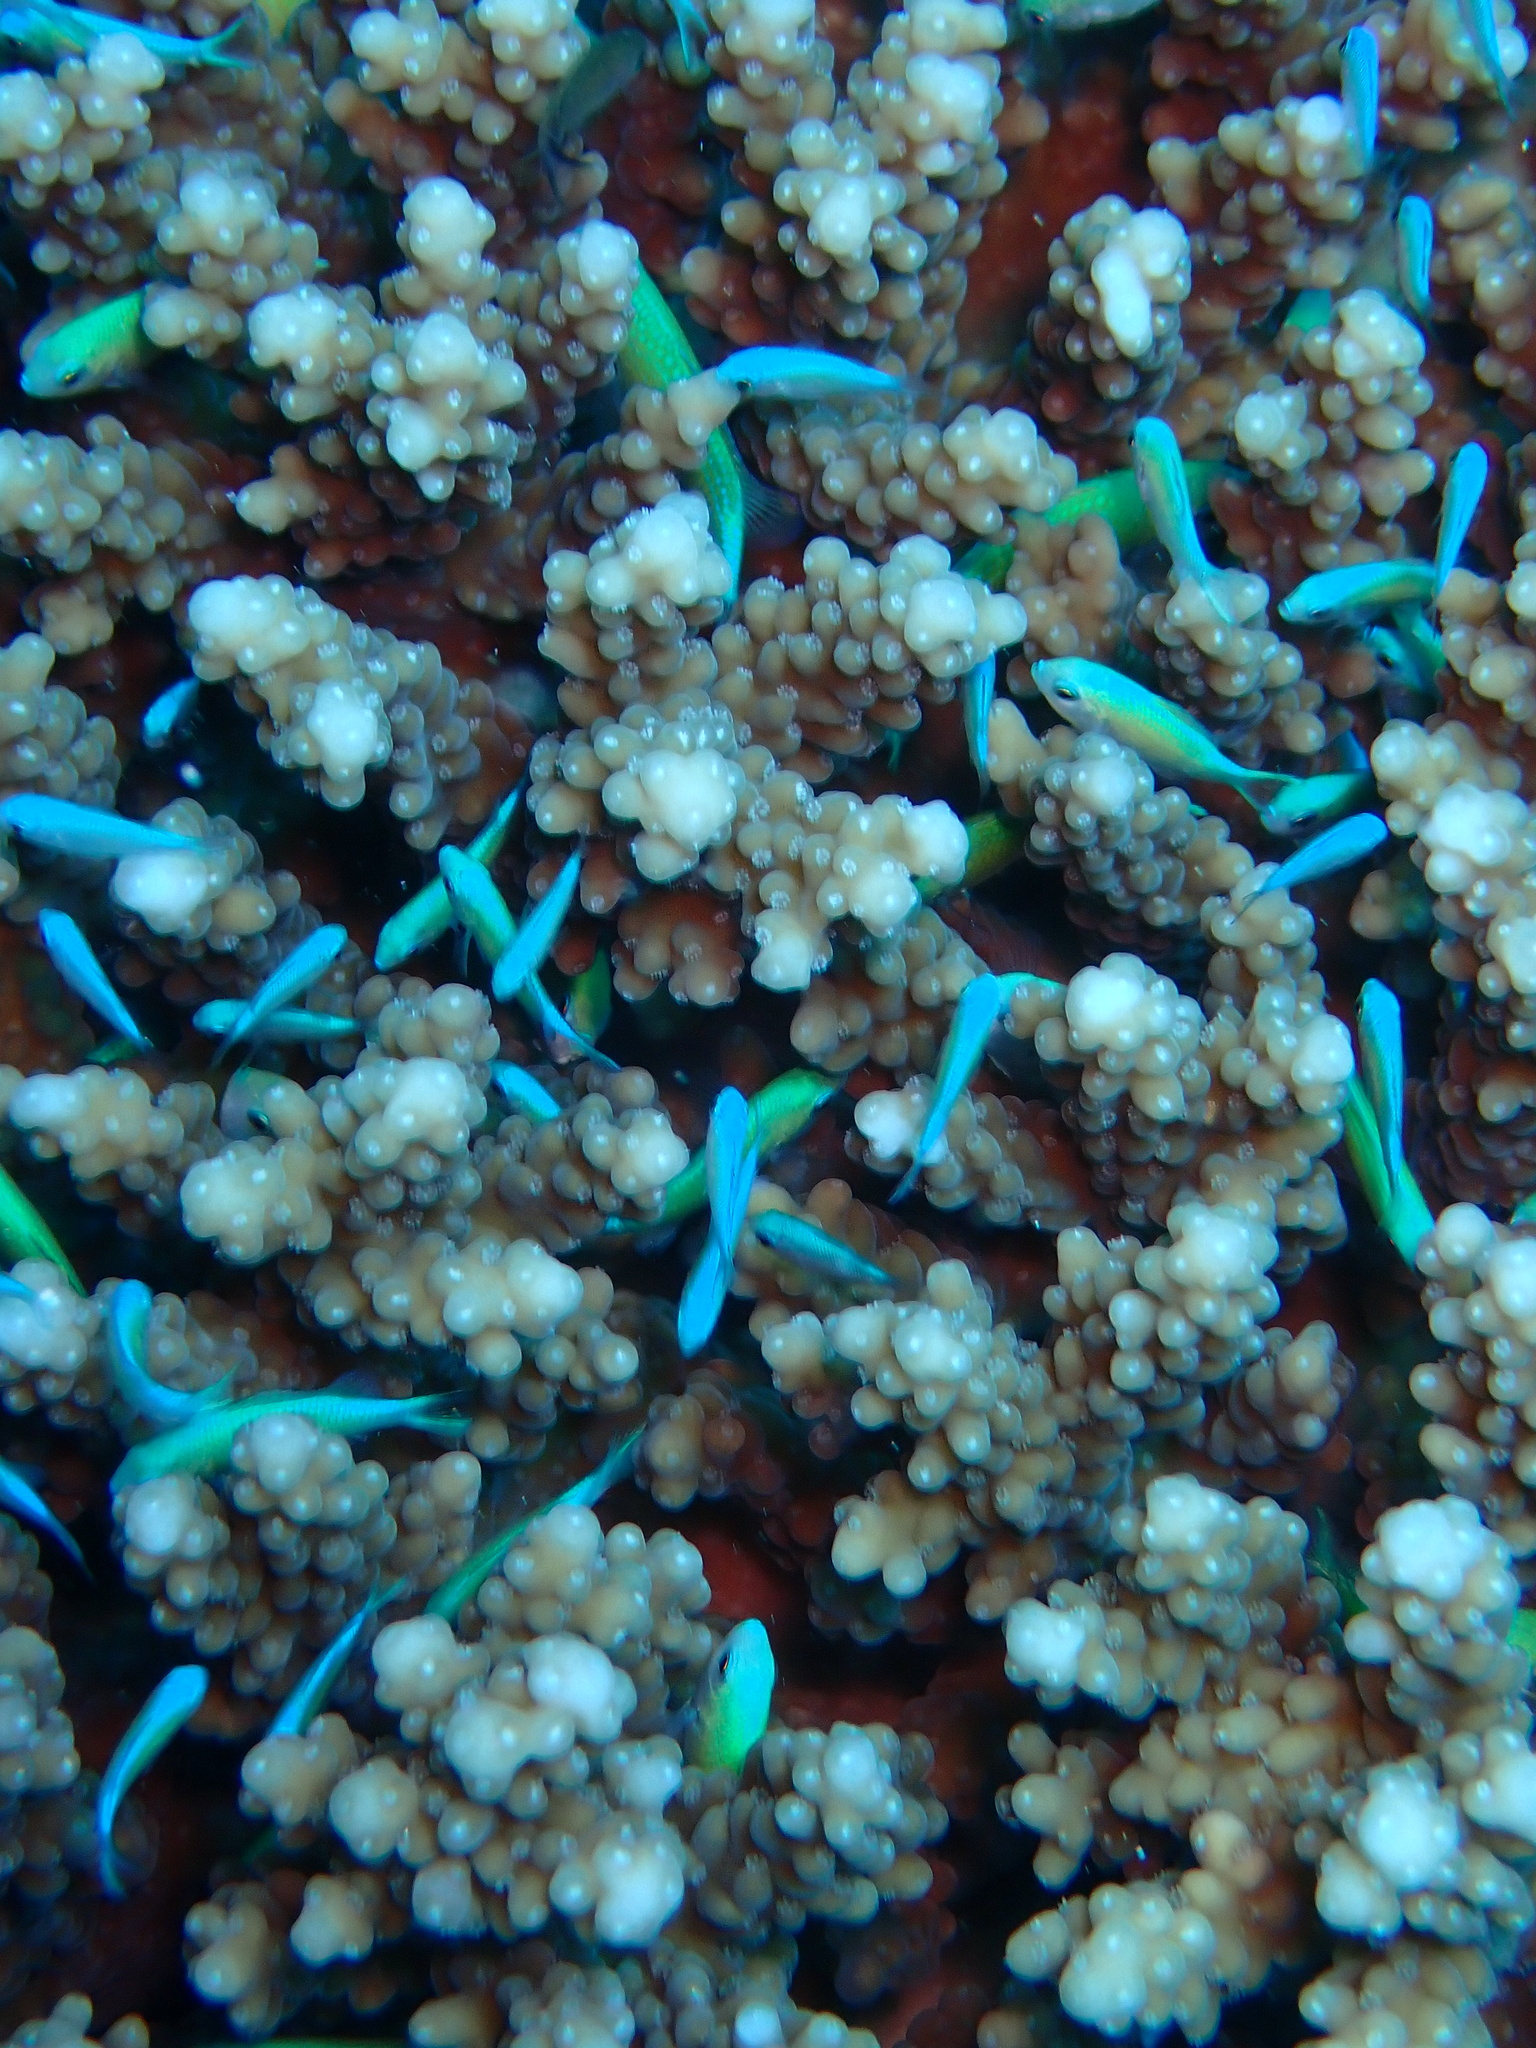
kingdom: Animalia
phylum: Chordata
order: Perciformes
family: Pomacentridae
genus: Chromis
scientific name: Chromis viridis
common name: Blue-green chromis
